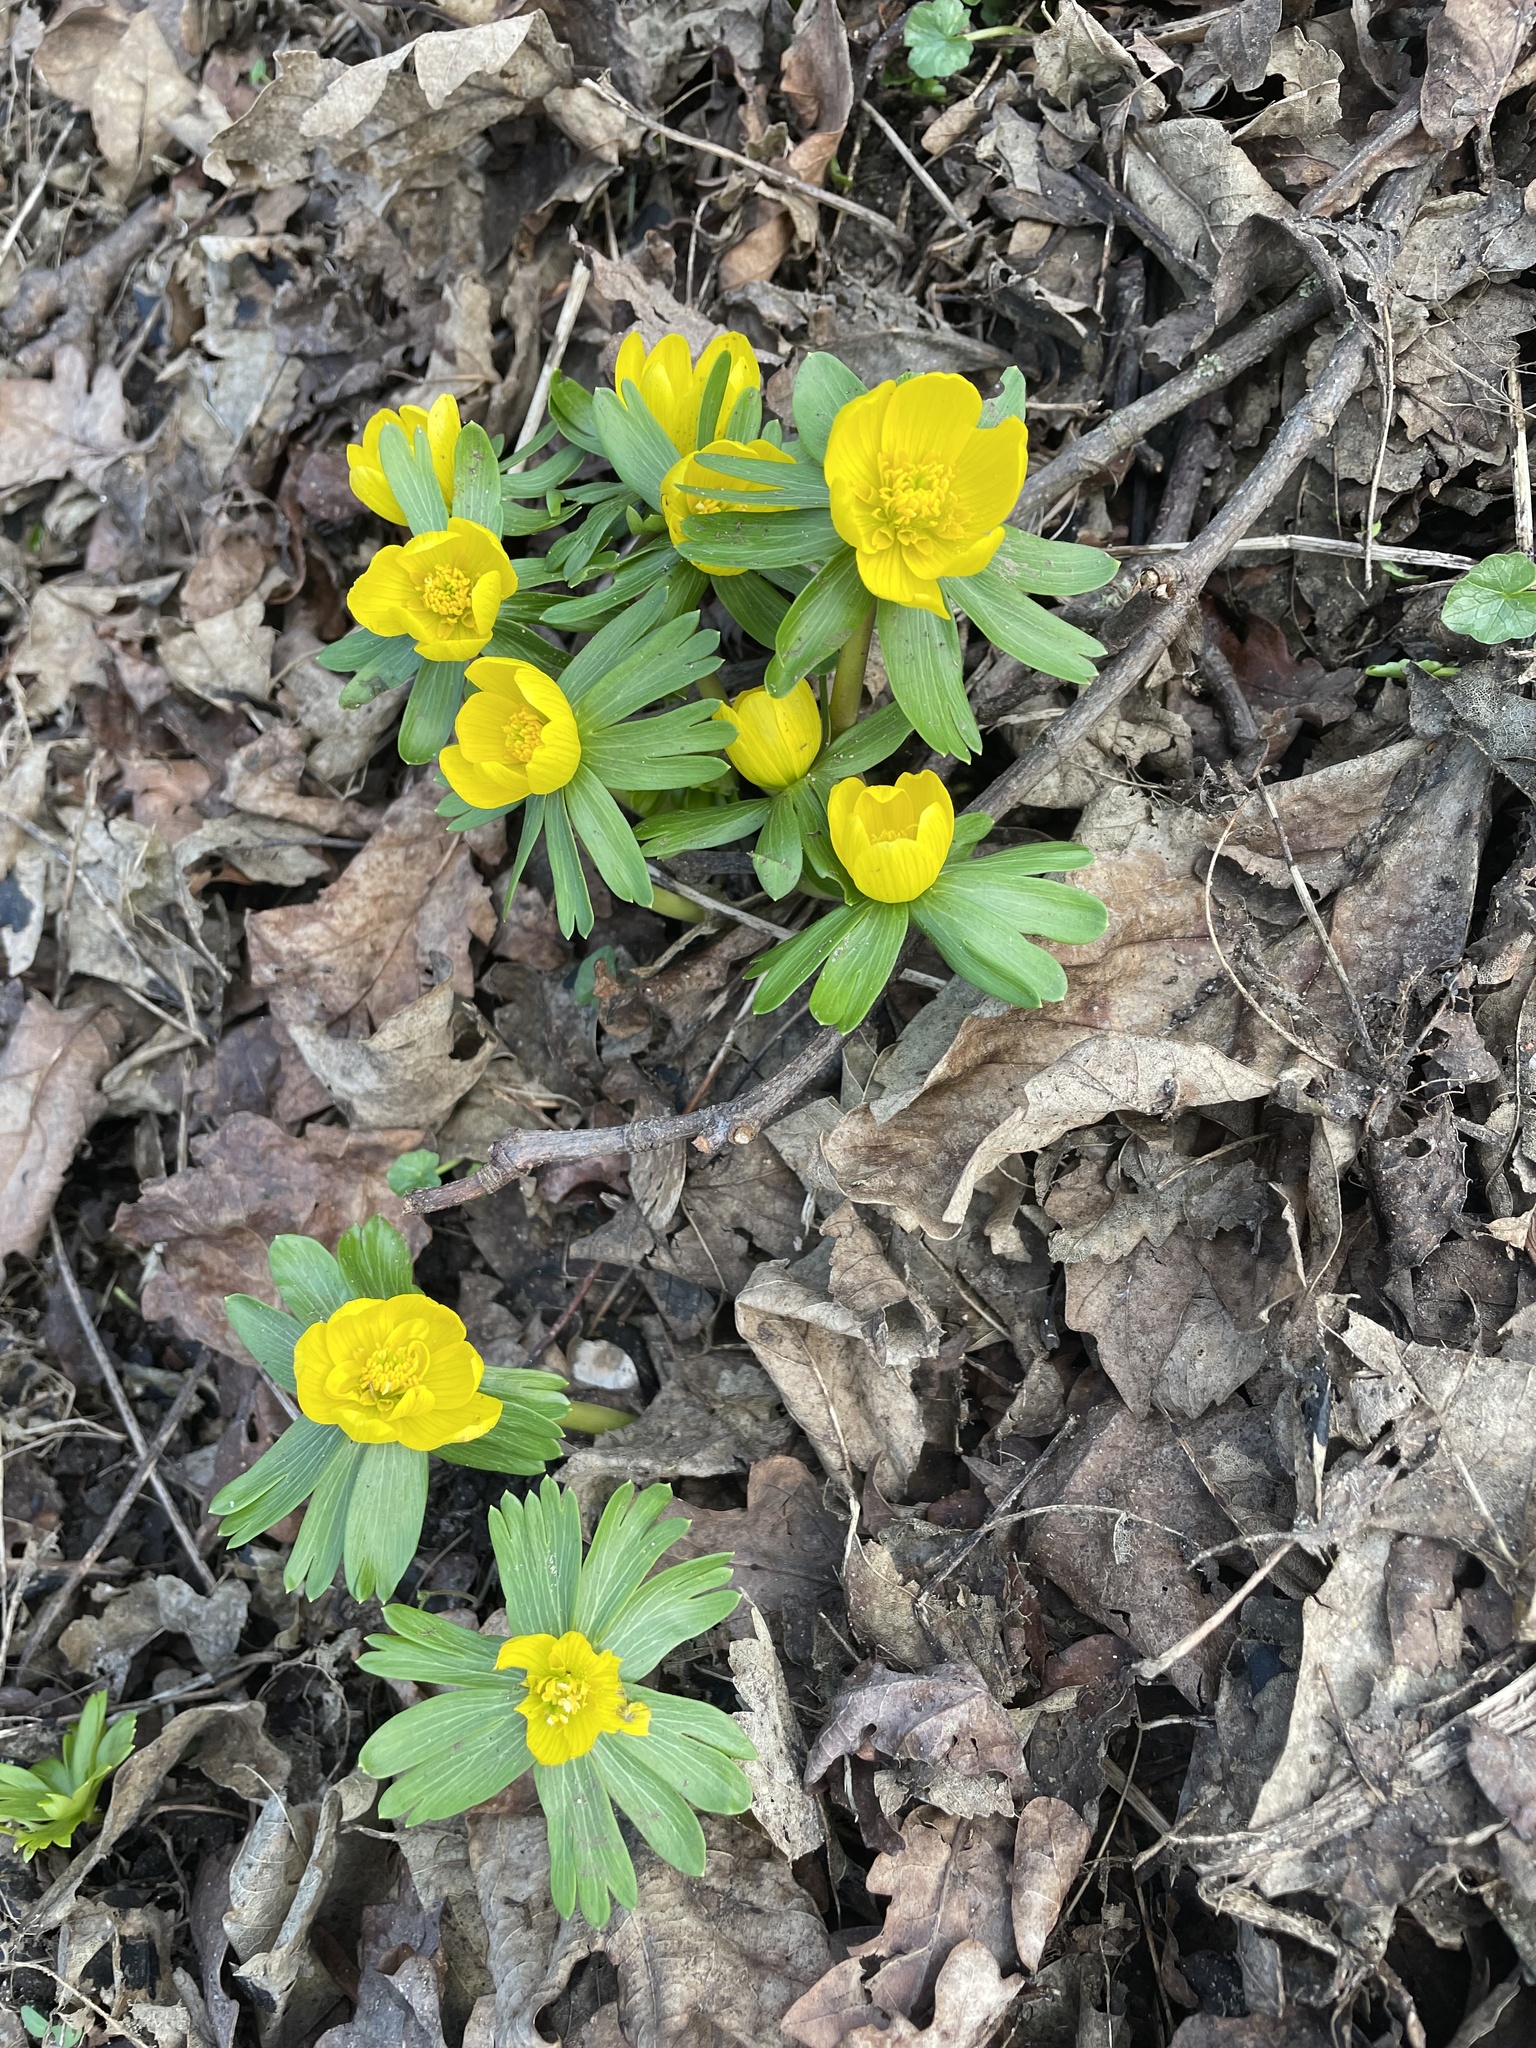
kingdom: Plantae
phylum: Tracheophyta
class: Magnoliopsida
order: Ranunculales
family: Ranunculaceae
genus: Eranthis
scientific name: Eranthis hyemalis
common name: Winter aconite
